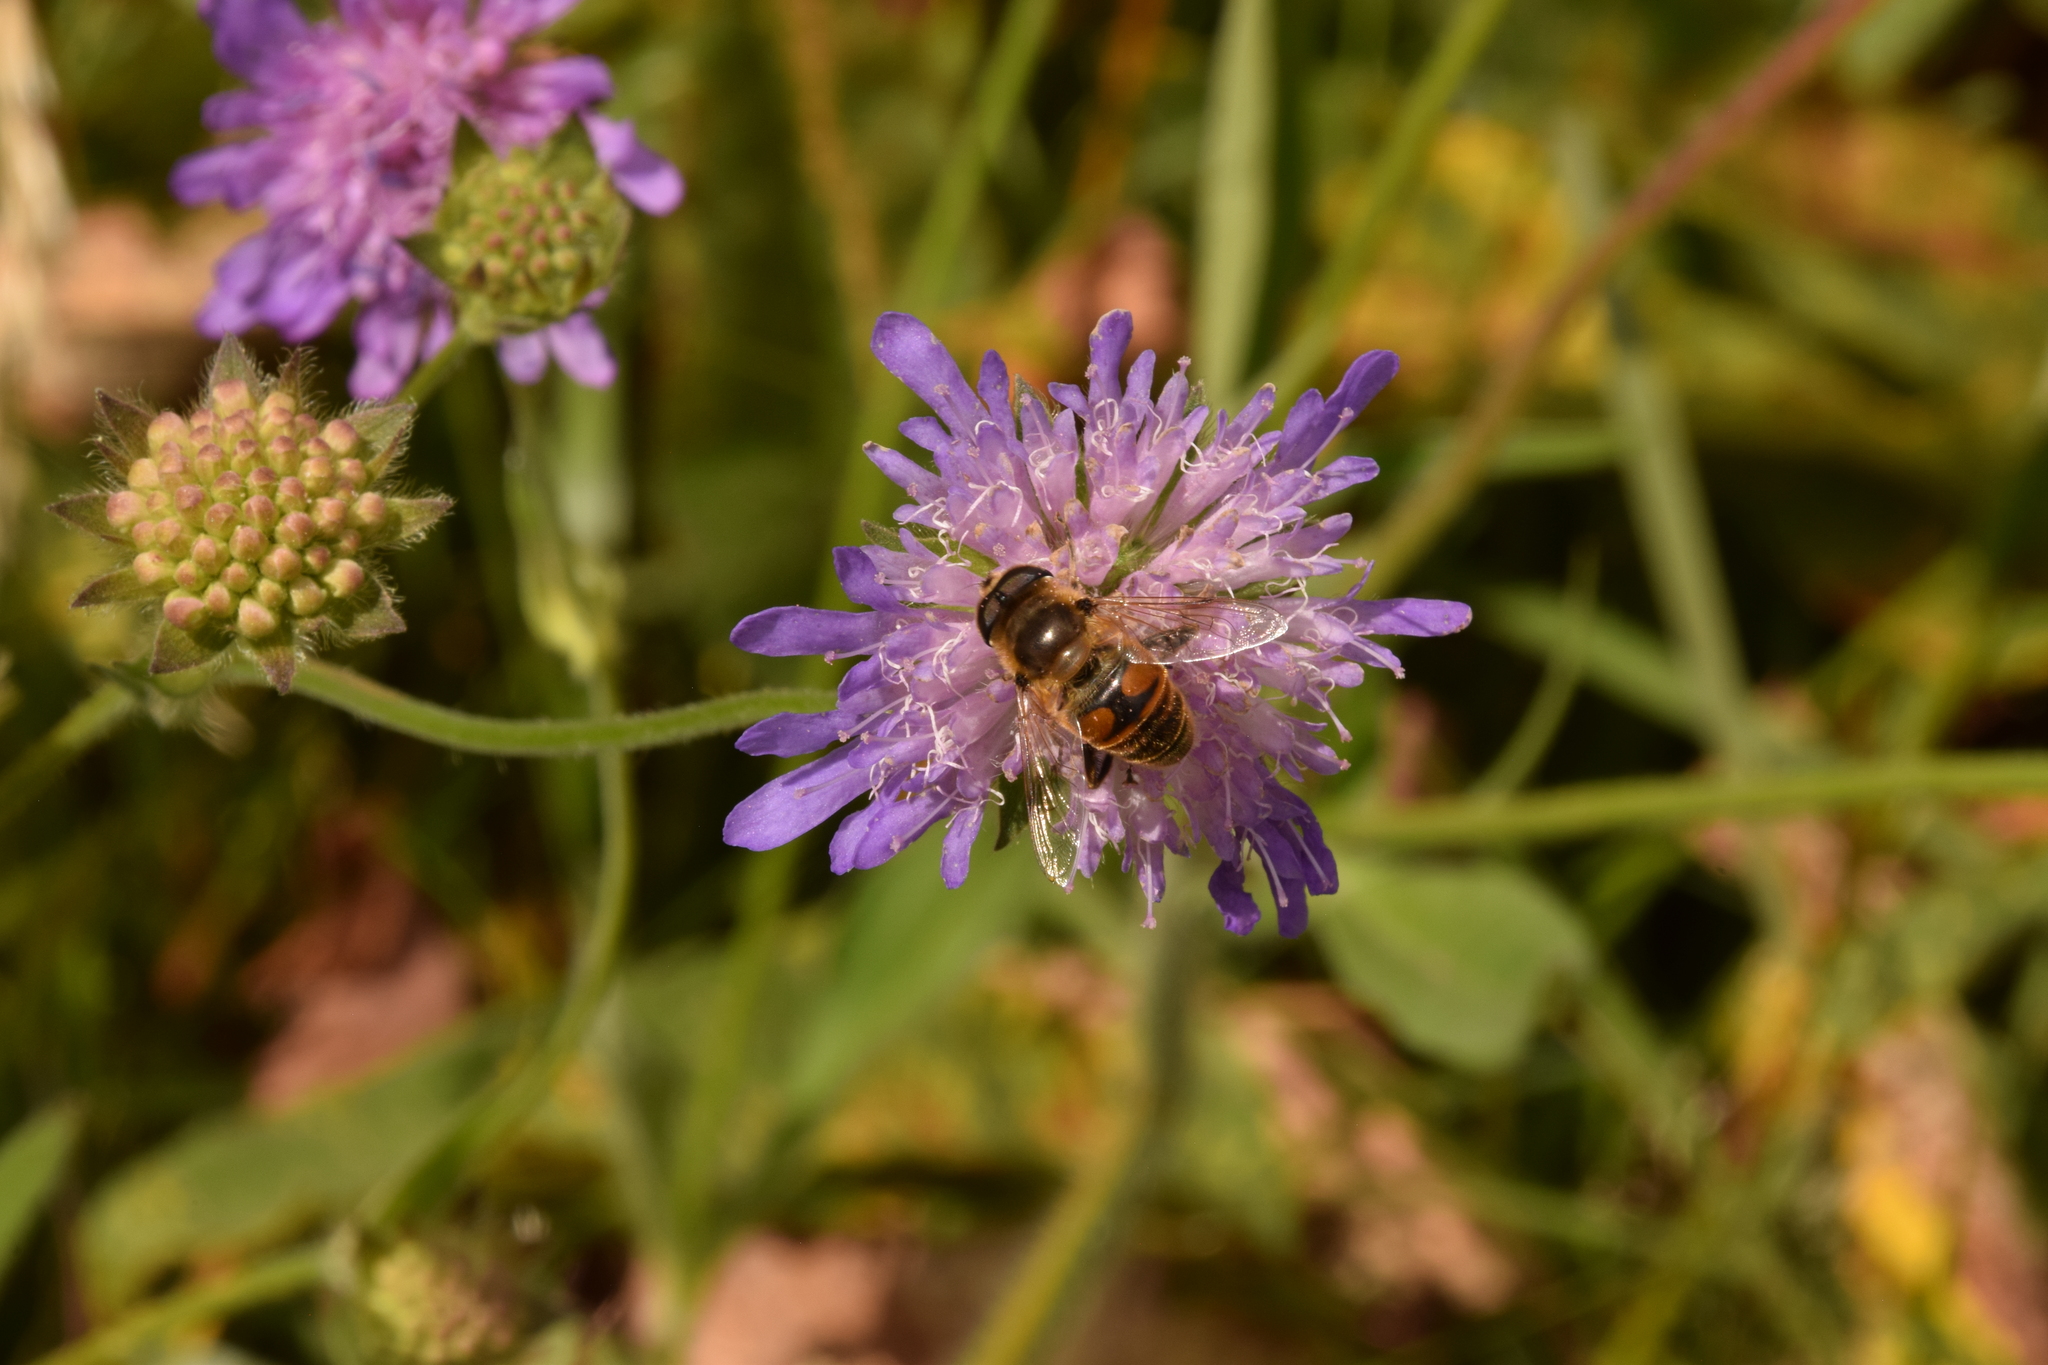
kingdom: Animalia
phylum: Arthropoda
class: Insecta
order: Diptera
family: Syrphidae
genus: Eristalis
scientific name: Eristalis tenax
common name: Drone fly
